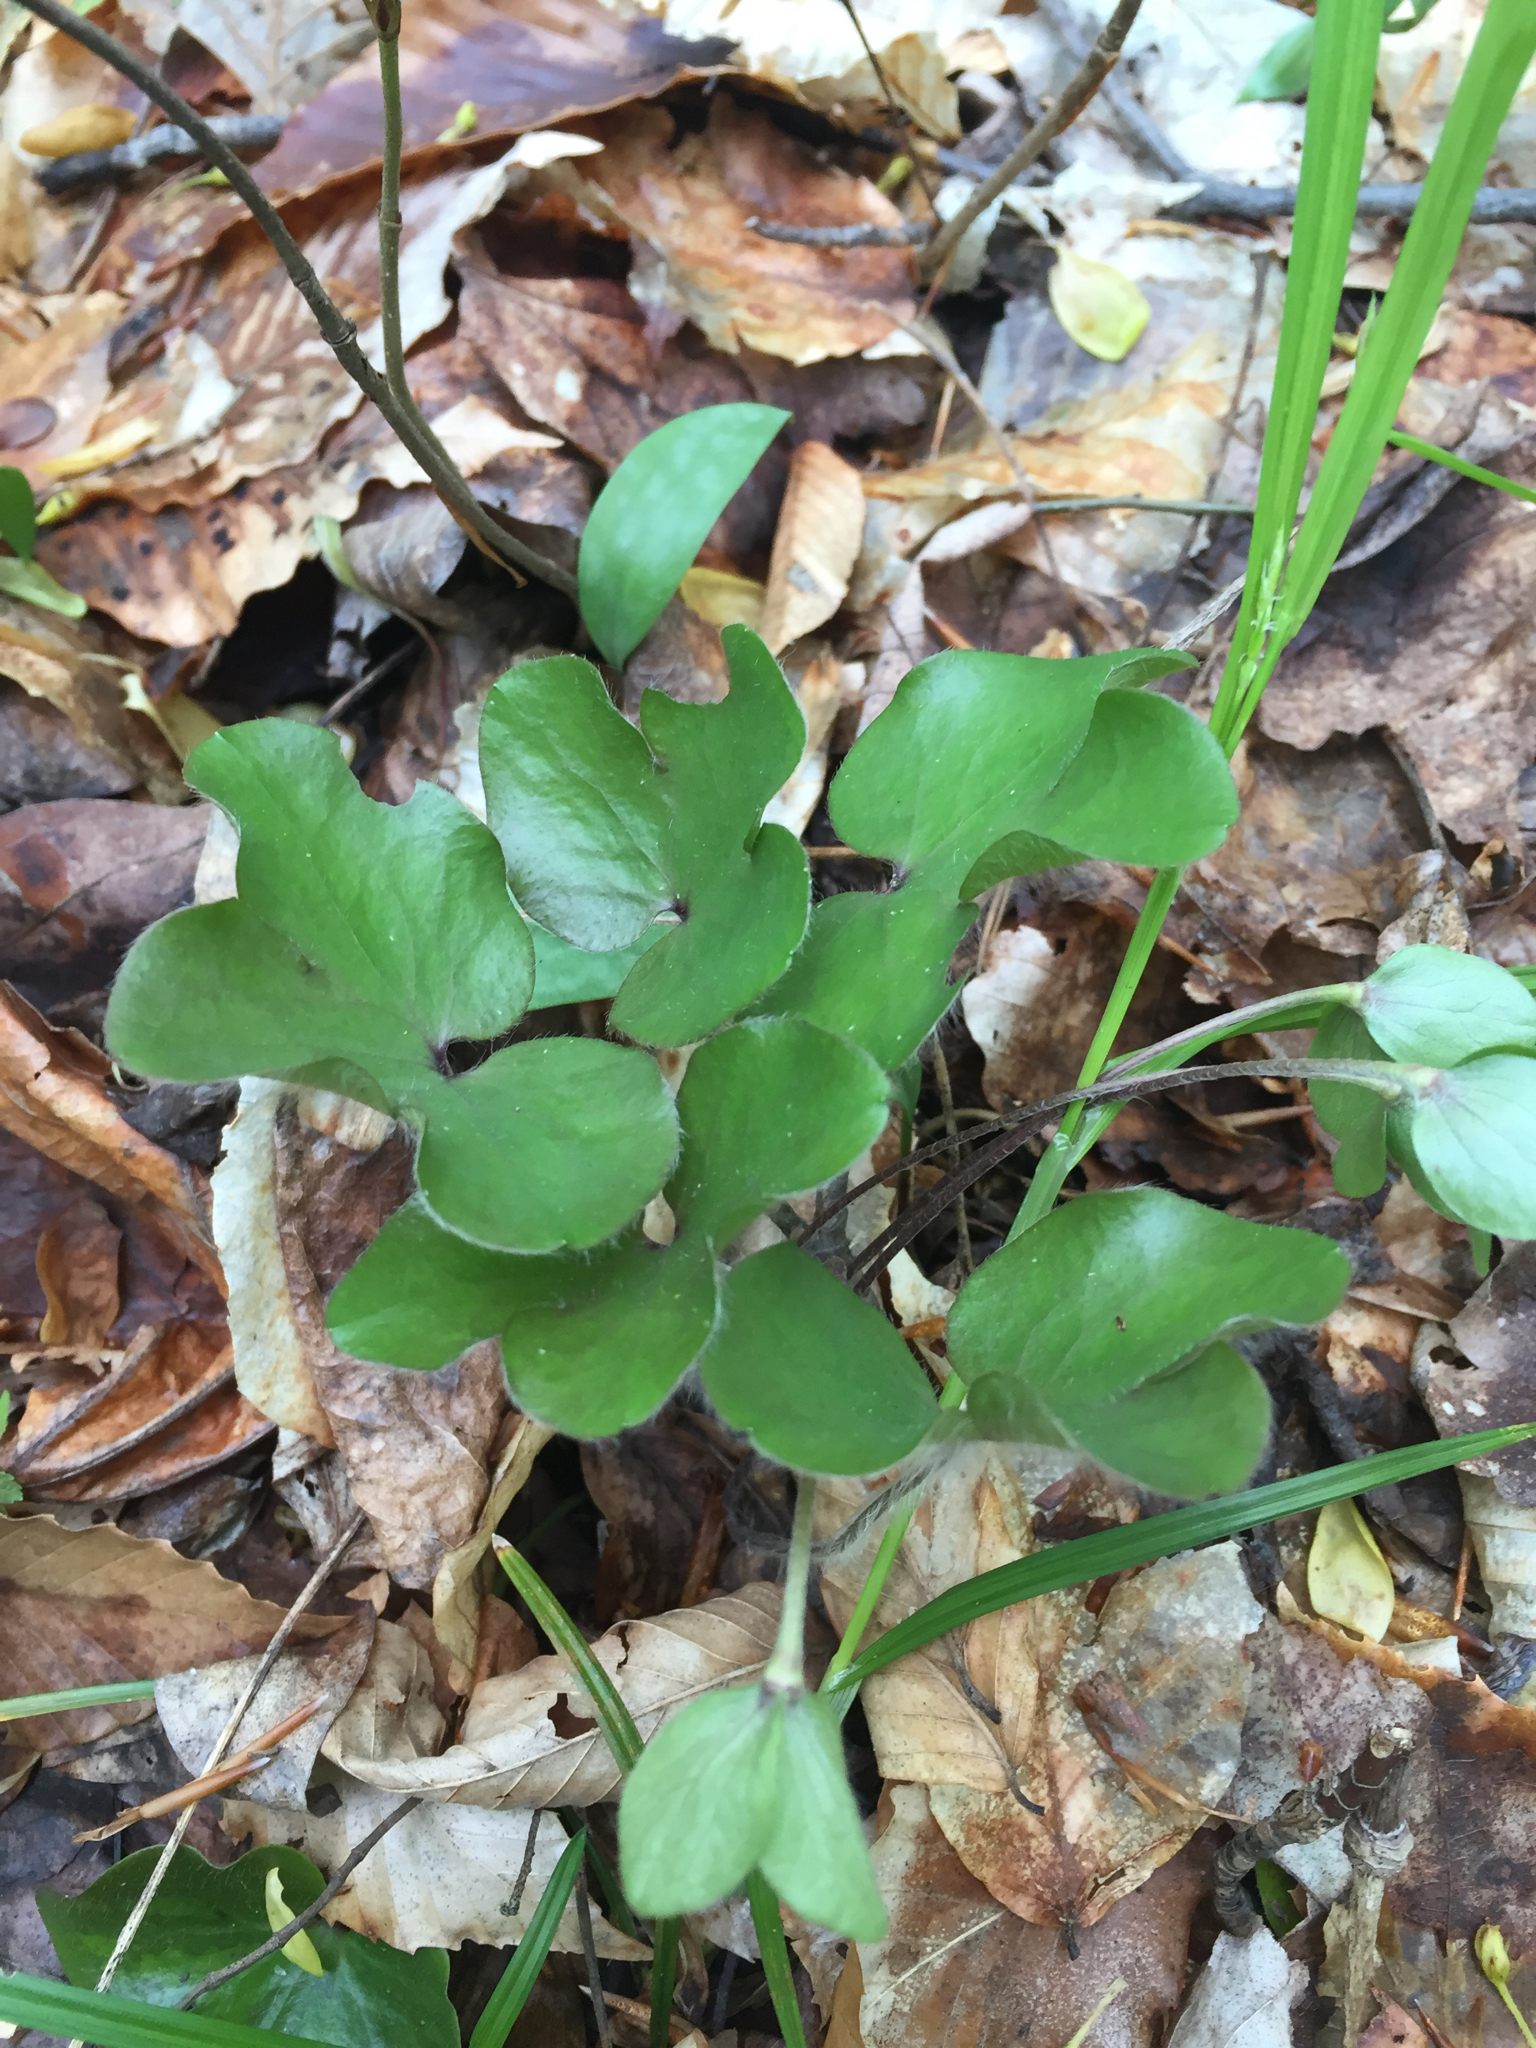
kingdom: Plantae
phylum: Tracheophyta
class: Magnoliopsida
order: Ranunculales
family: Ranunculaceae
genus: Hepatica
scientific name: Hepatica americana
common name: American hepatica
